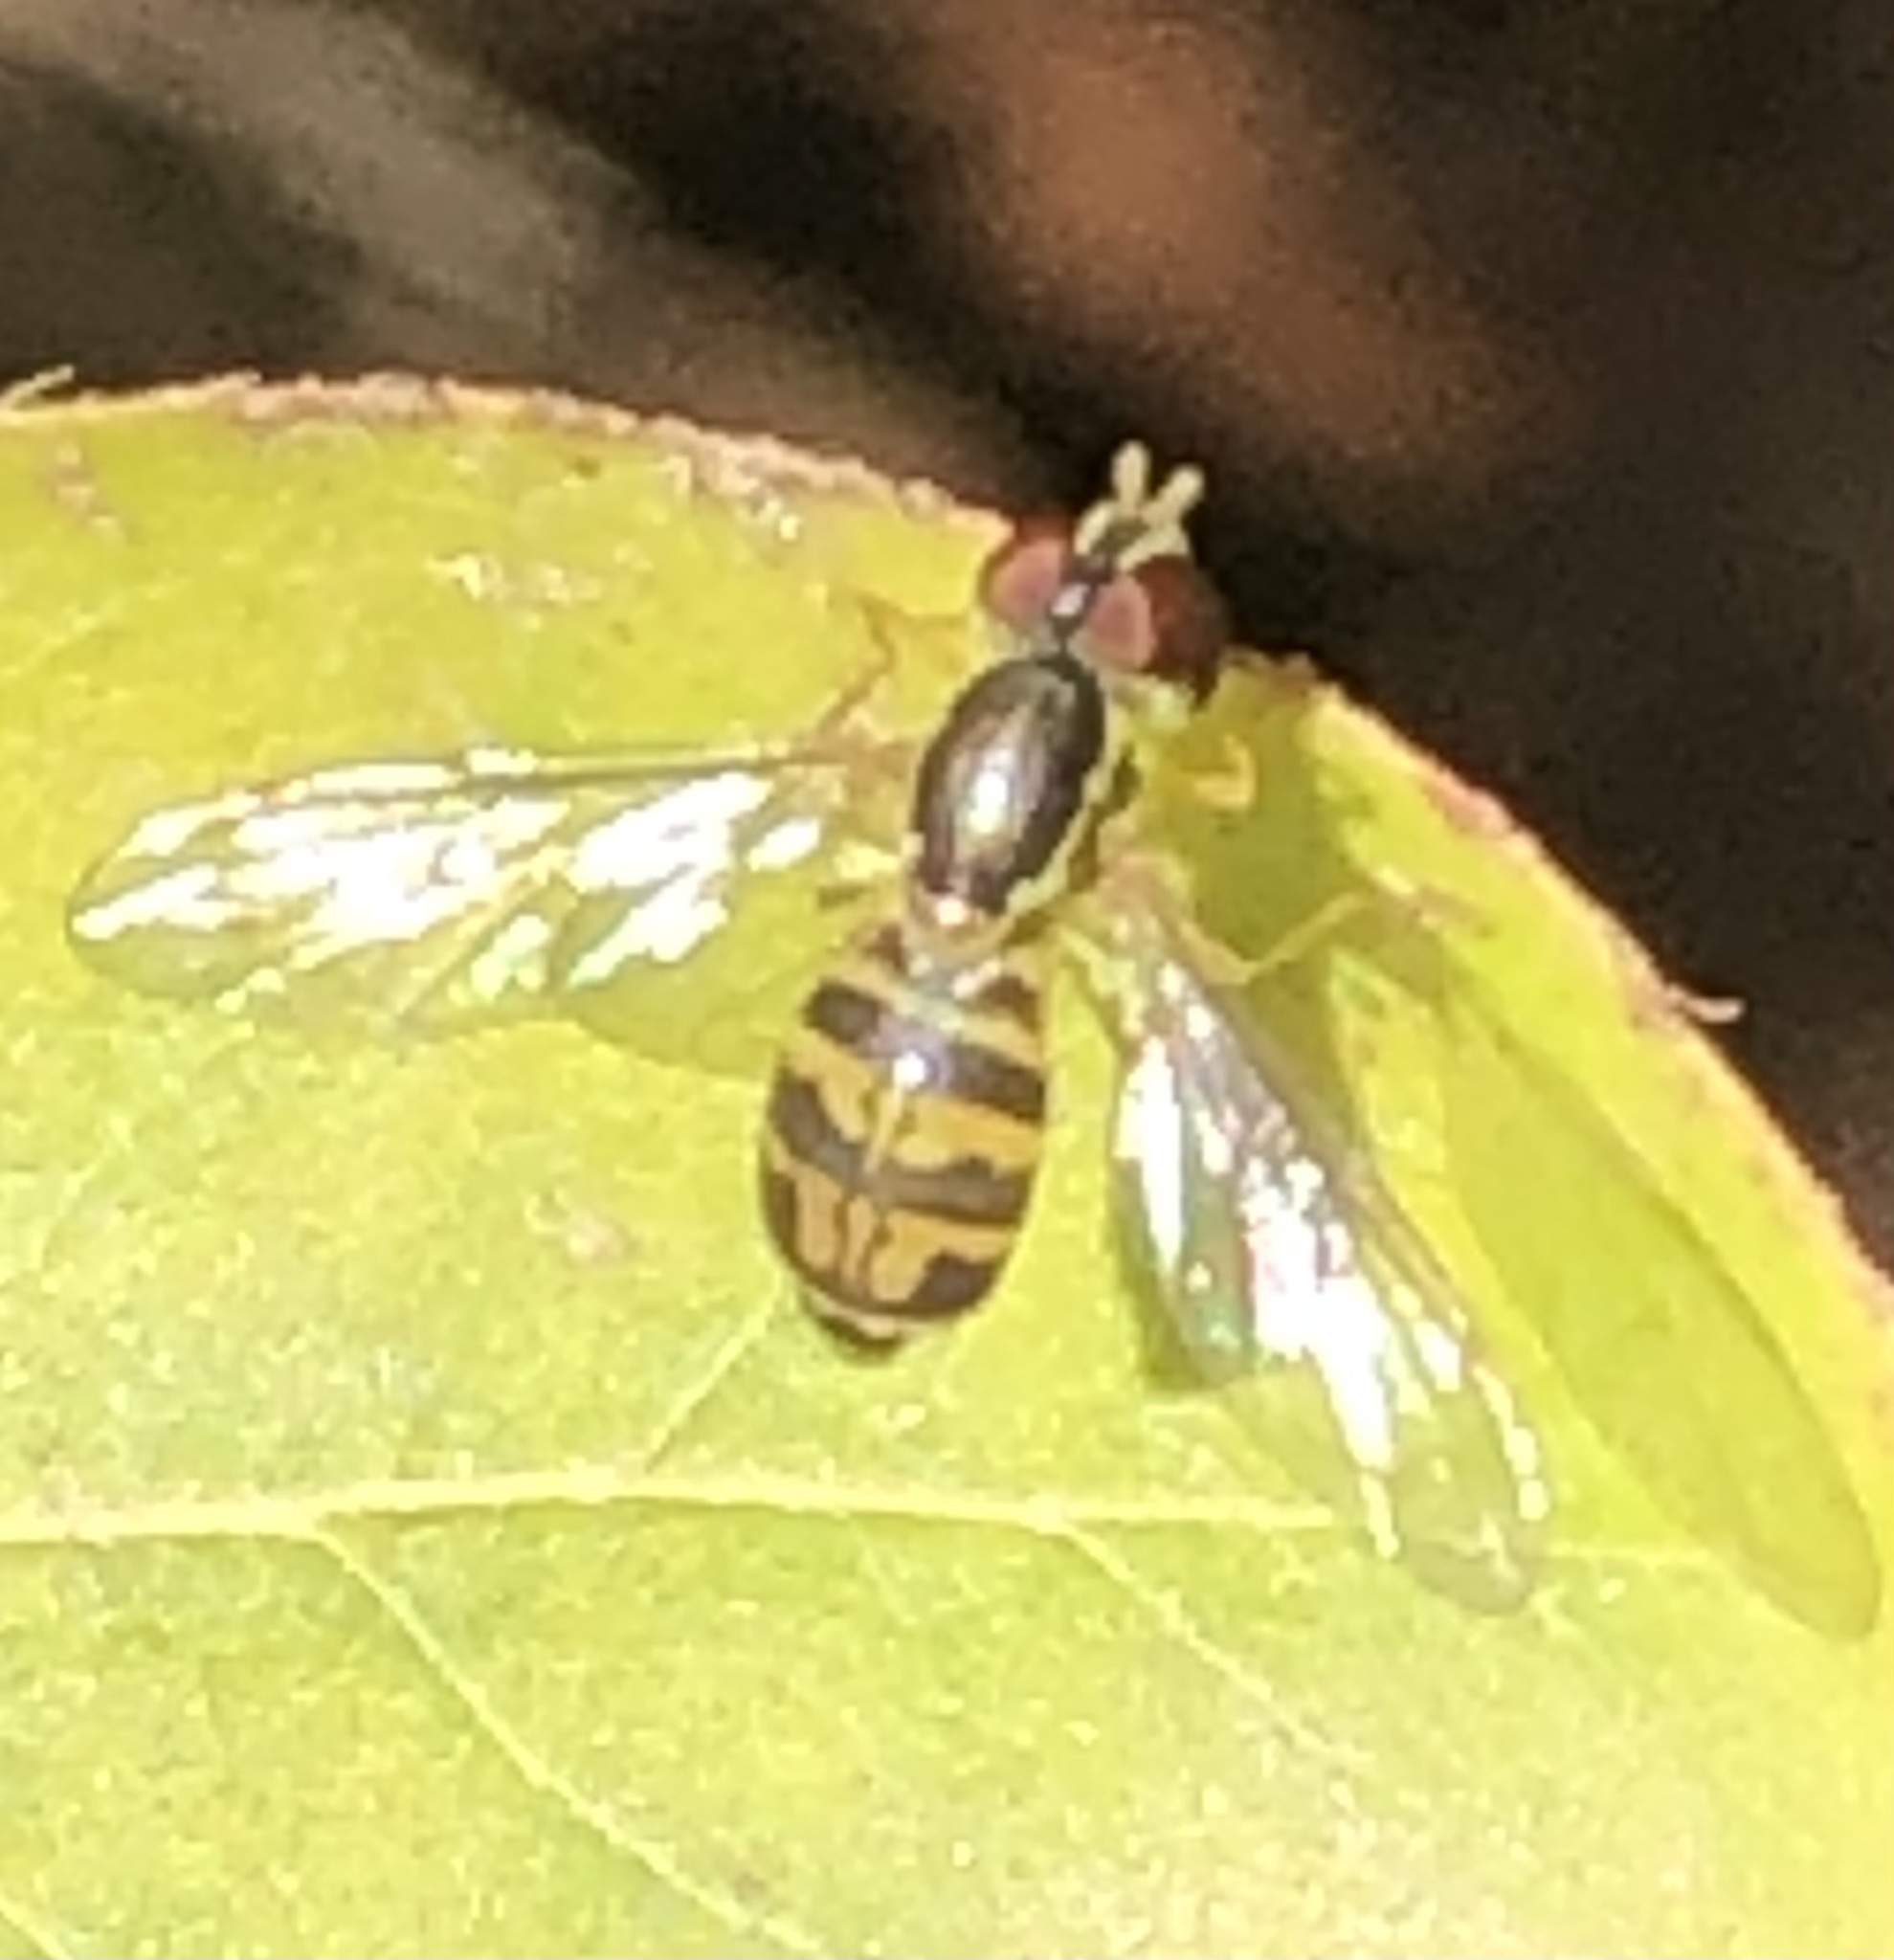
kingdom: Animalia
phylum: Arthropoda
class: Insecta
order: Diptera
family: Syrphidae
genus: Toxomerus
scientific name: Toxomerus geminatus
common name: Eastern calligrapher
